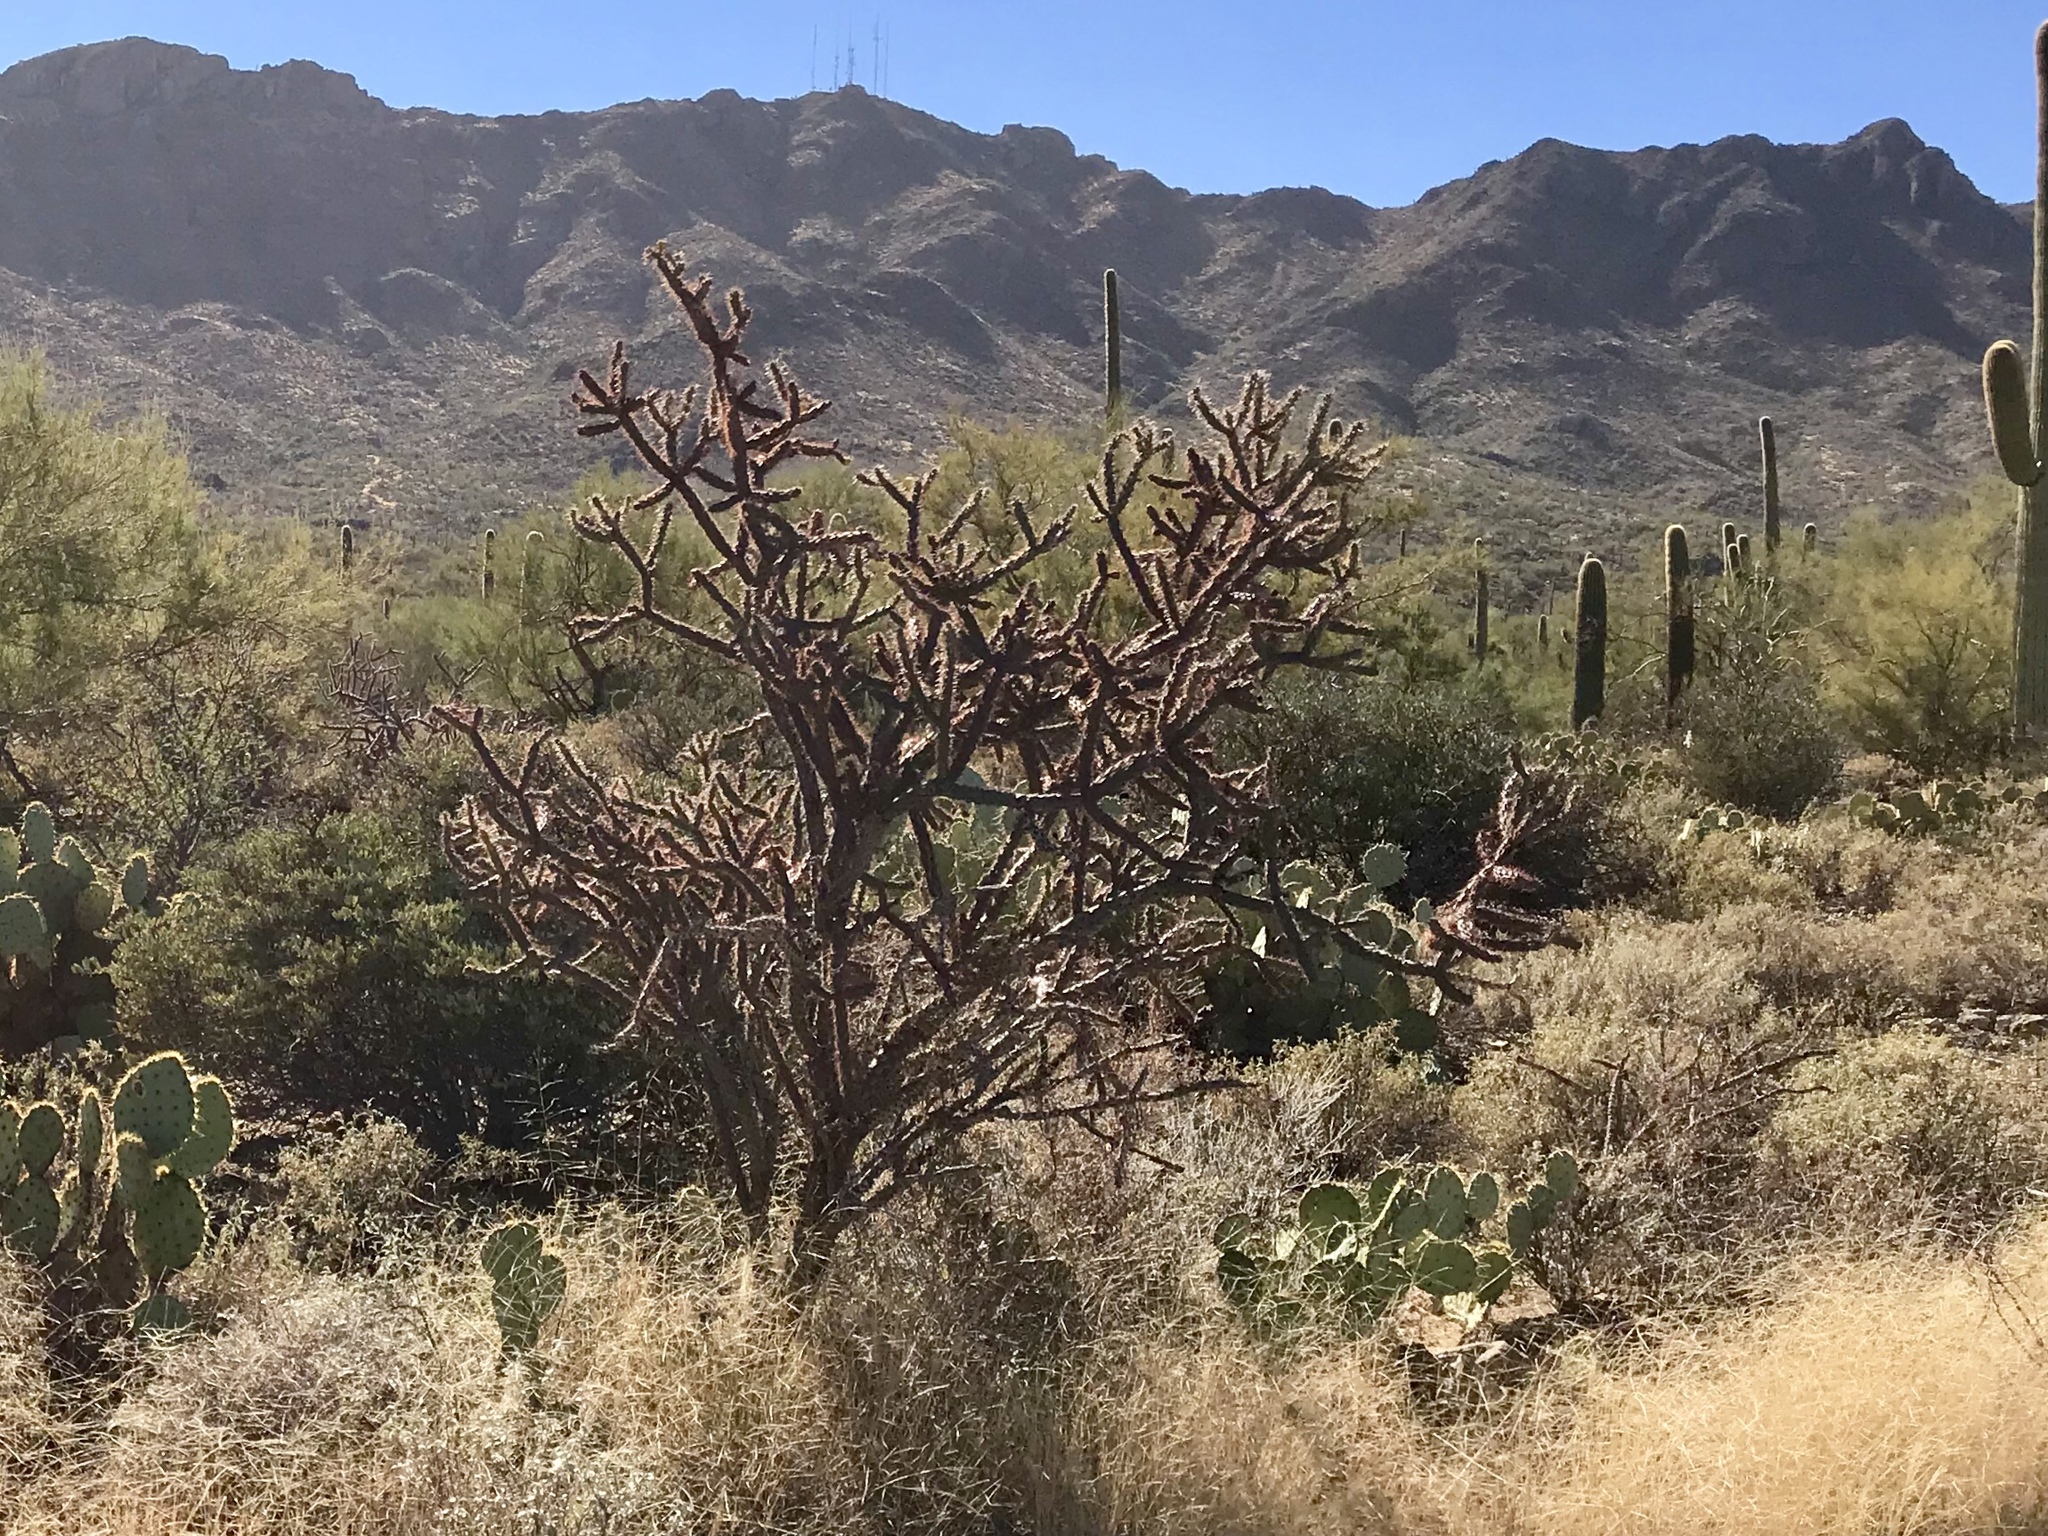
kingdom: Plantae
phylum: Tracheophyta
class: Magnoliopsida
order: Caryophyllales
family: Cactaceae
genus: Cylindropuntia
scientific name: Cylindropuntia thurberi
